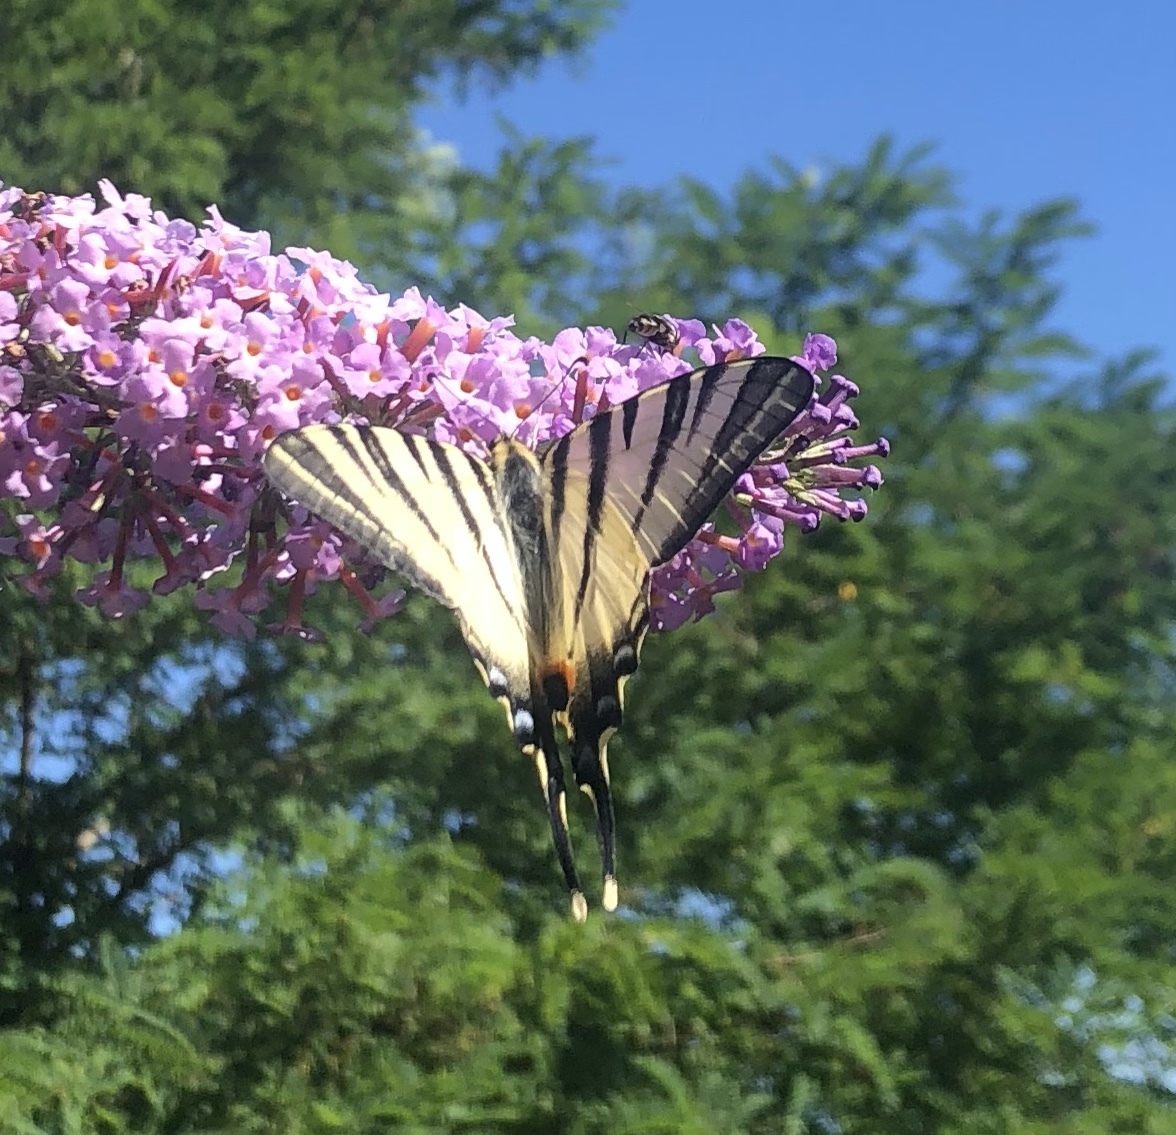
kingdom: Animalia
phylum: Arthropoda
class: Insecta
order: Lepidoptera
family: Papilionidae
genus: Iphiclides
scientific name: Iphiclides podalirius
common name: Scarce swallowtail
